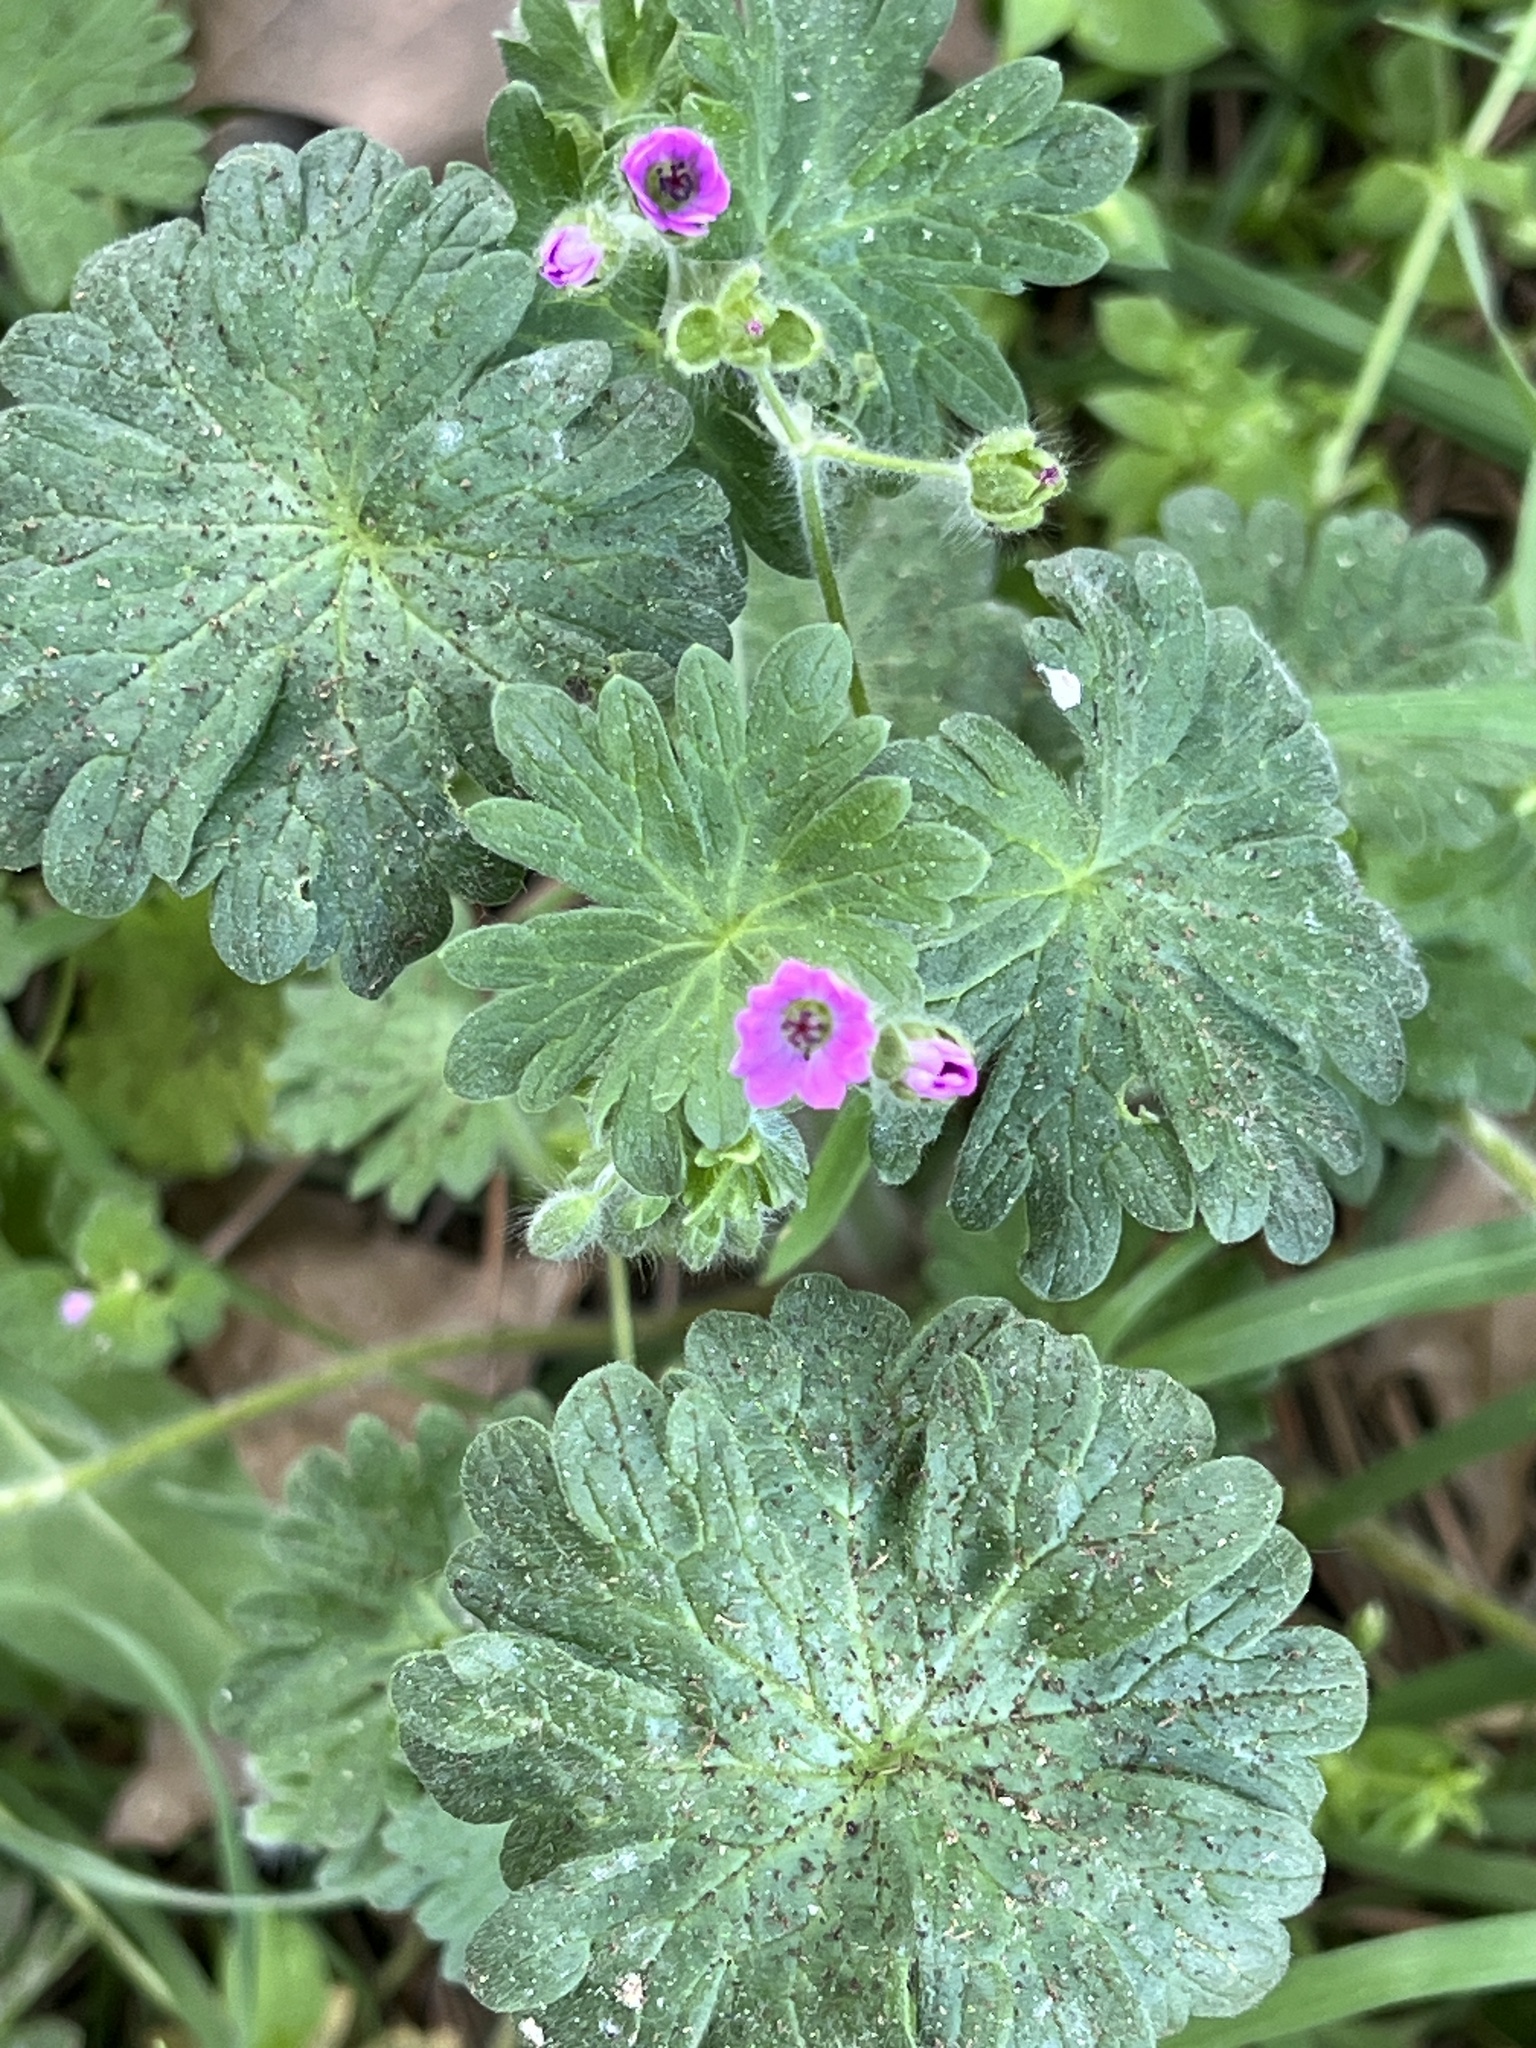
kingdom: Plantae
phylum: Tracheophyta
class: Magnoliopsida
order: Geraniales
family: Geraniaceae
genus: Geranium
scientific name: Geranium molle
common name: Dove's-foot crane's-bill
